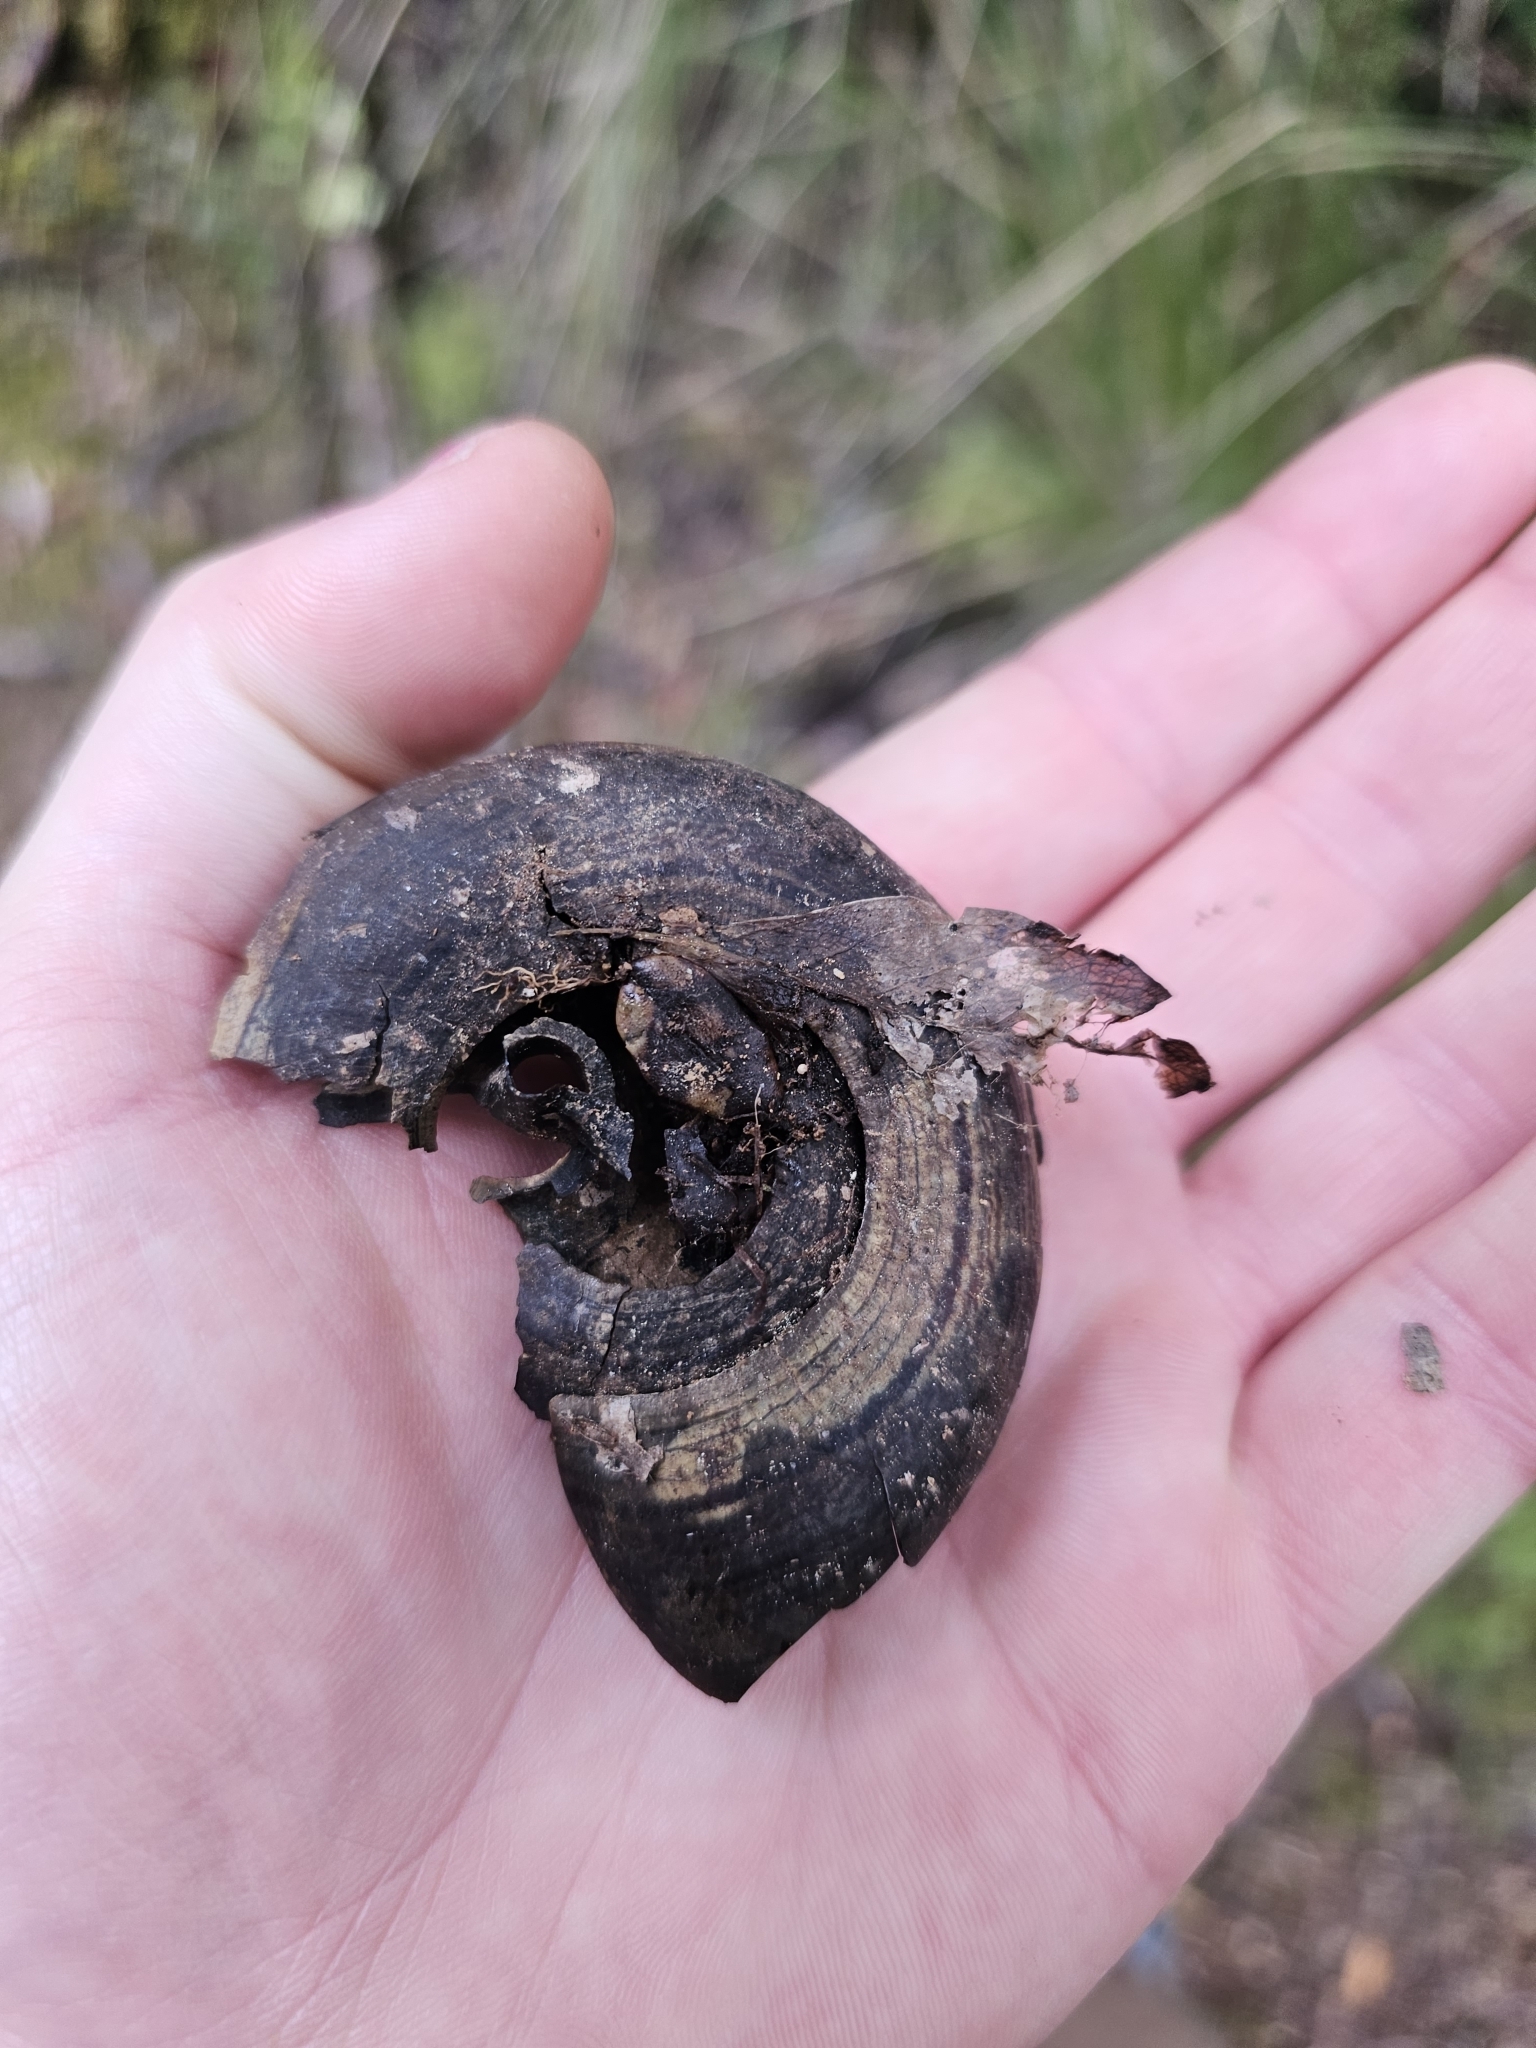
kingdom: Animalia
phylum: Mollusca
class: Gastropoda
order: Stylommatophora
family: Rhytididae
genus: Powelliphanta
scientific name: Powelliphanta hochstetteri
